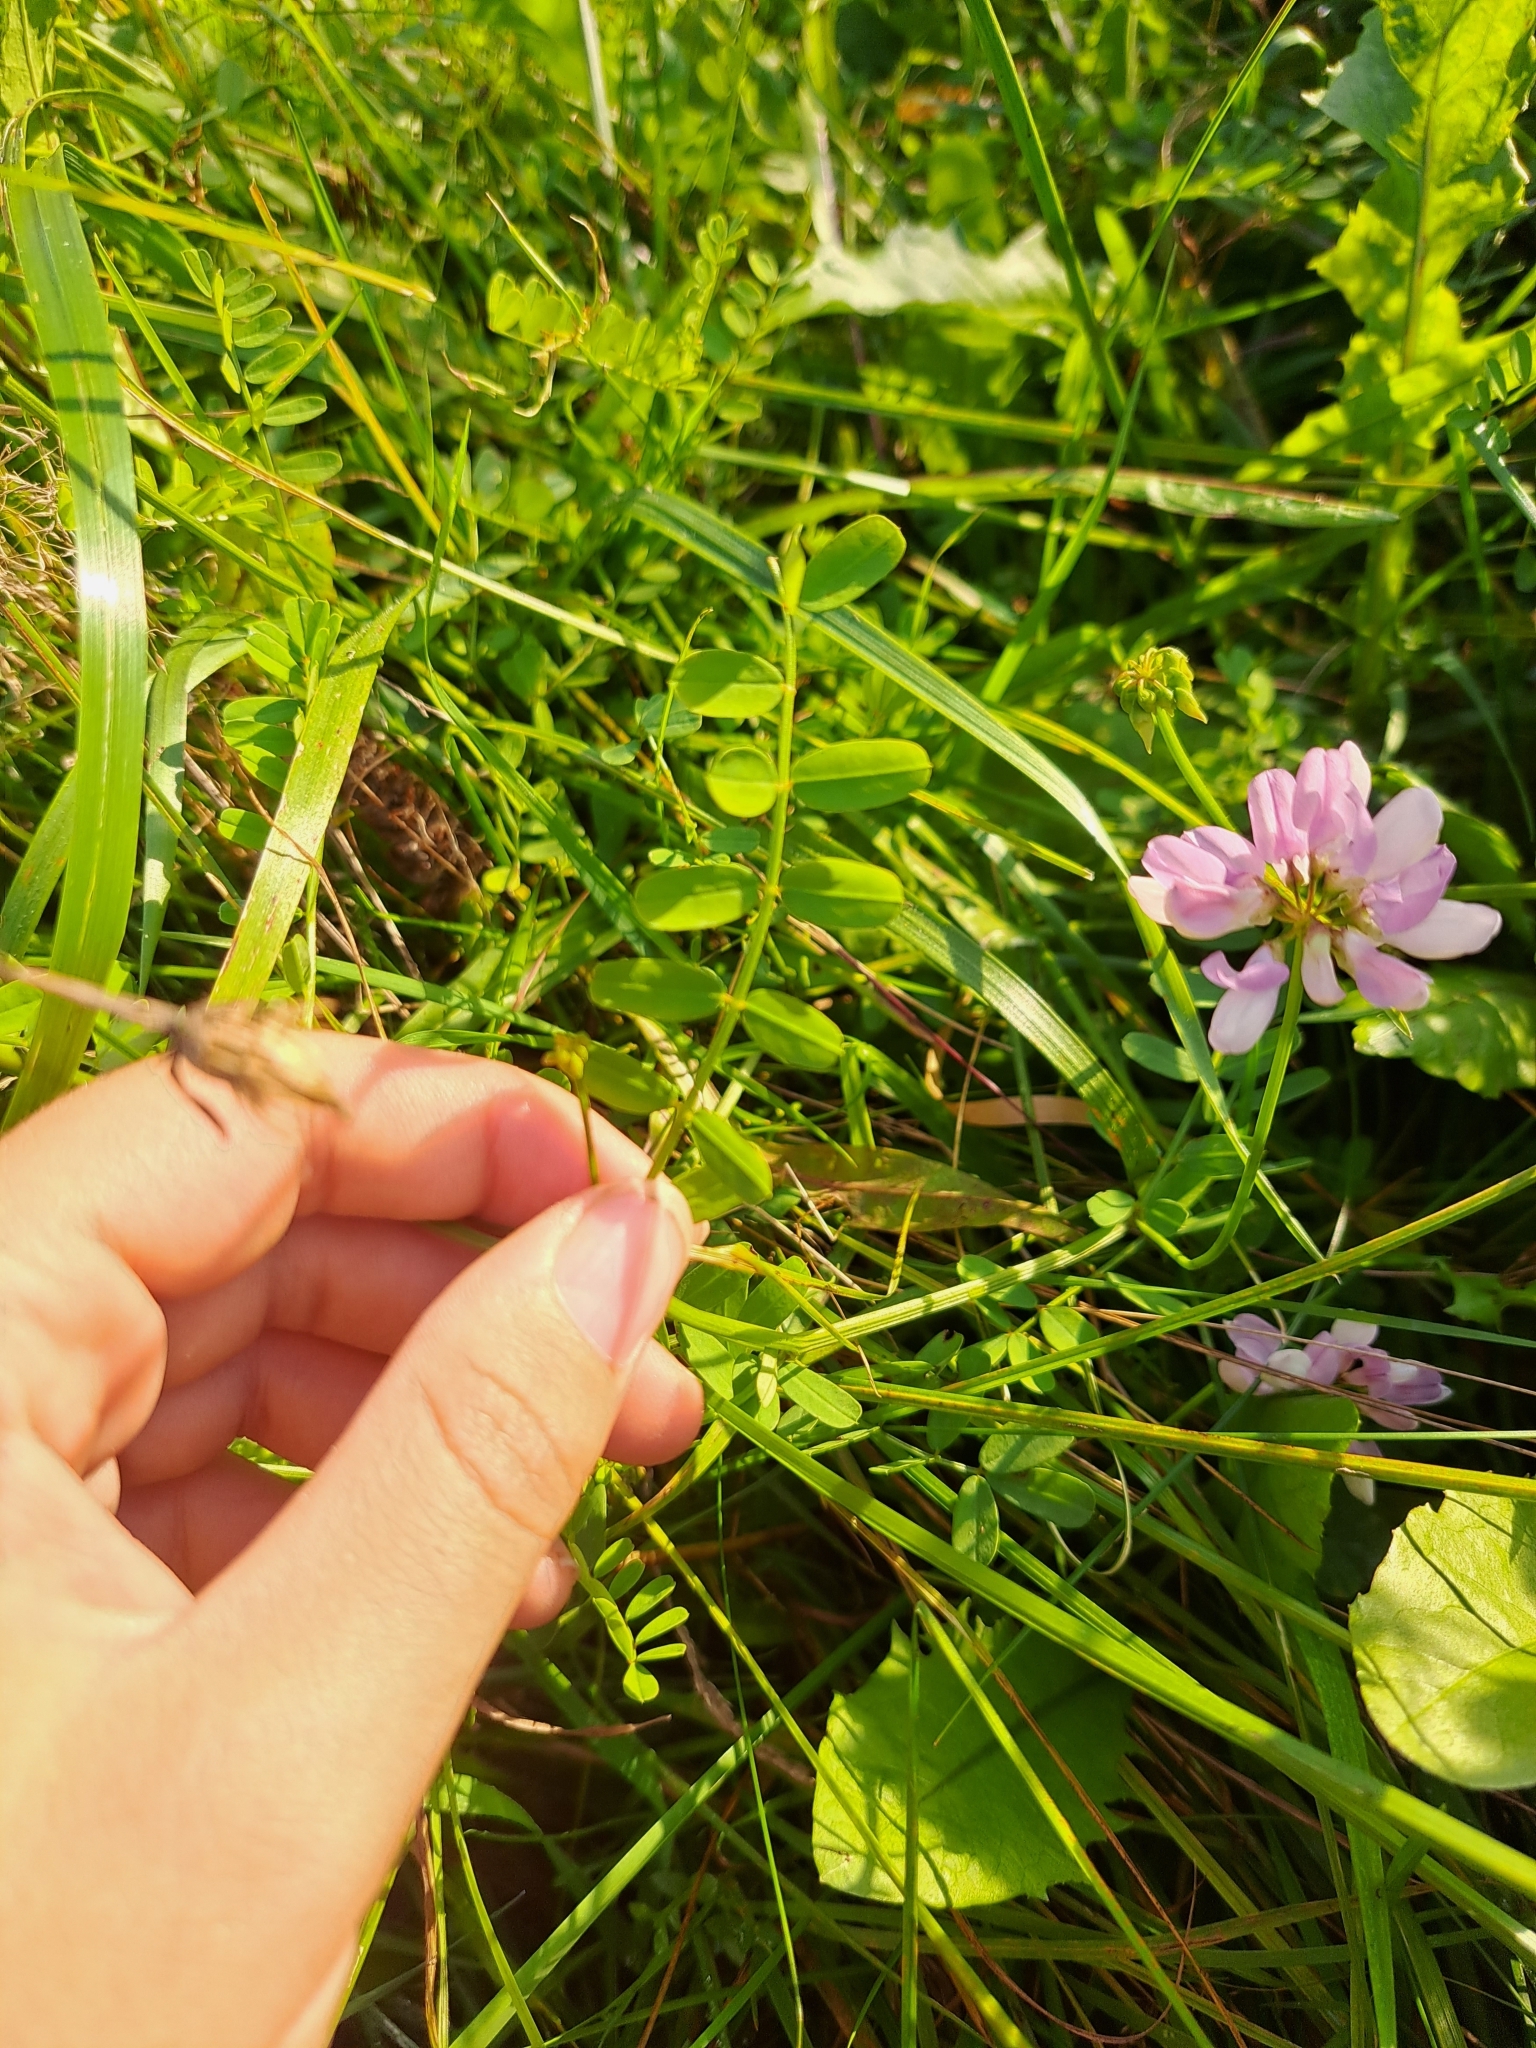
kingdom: Plantae
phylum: Tracheophyta
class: Magnoliopsida
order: Fabales
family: Fabaceae
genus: Coronilla
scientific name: Coronilla varia
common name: Crownvetch
